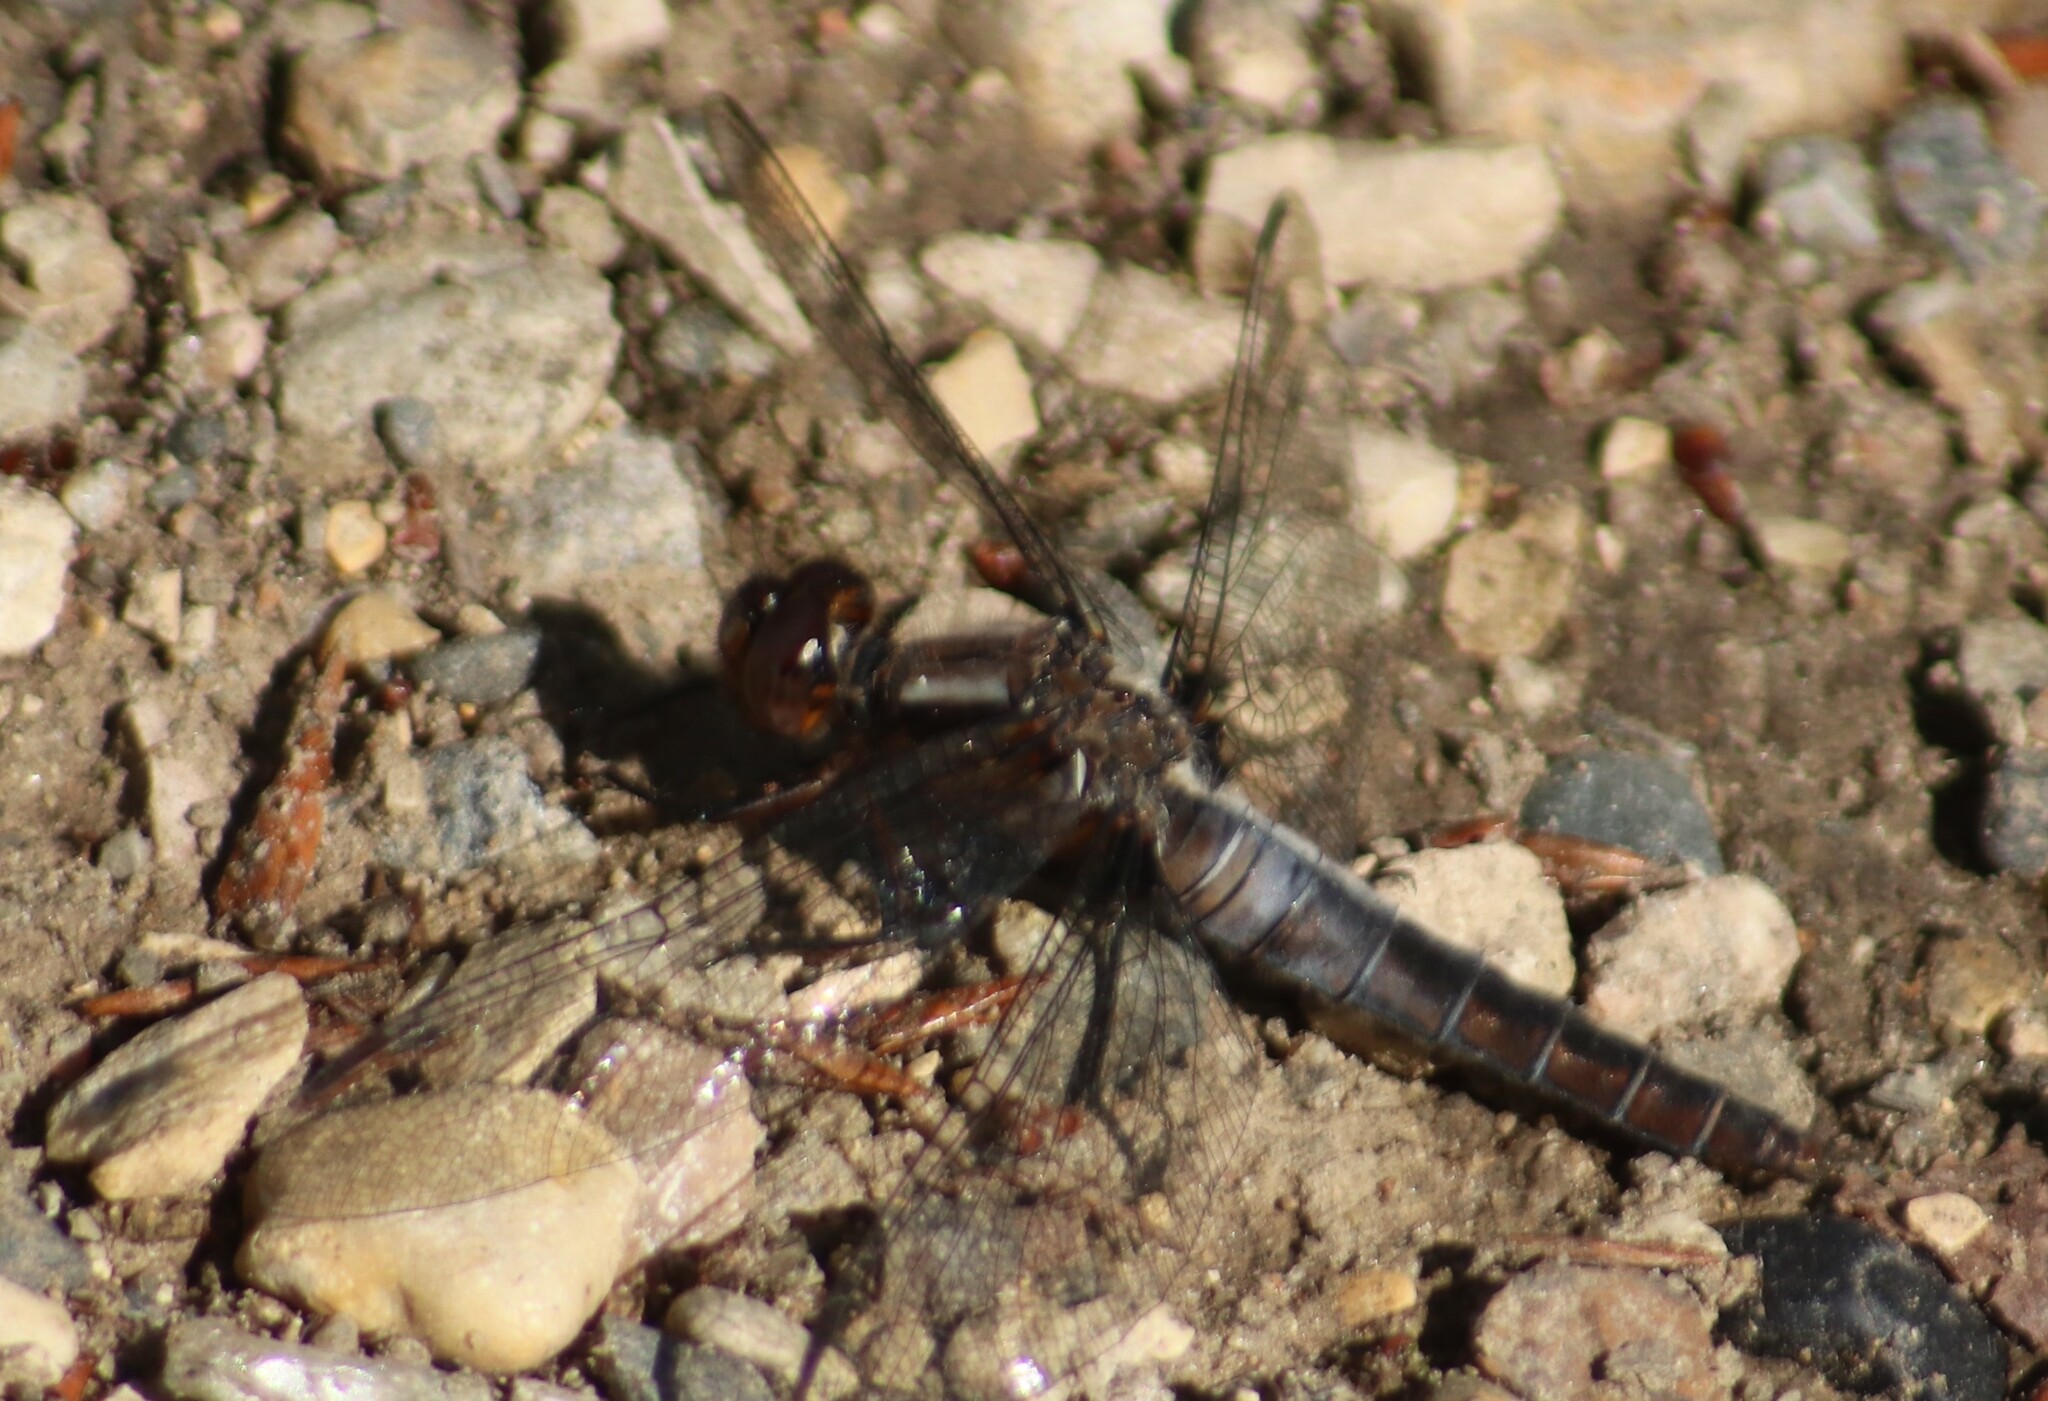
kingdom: Animalia
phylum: Arthropoda
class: Insecta
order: Odonata
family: Libellulidae
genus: Ladona
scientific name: Ladona julia
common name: Chalk-fronted corporal
